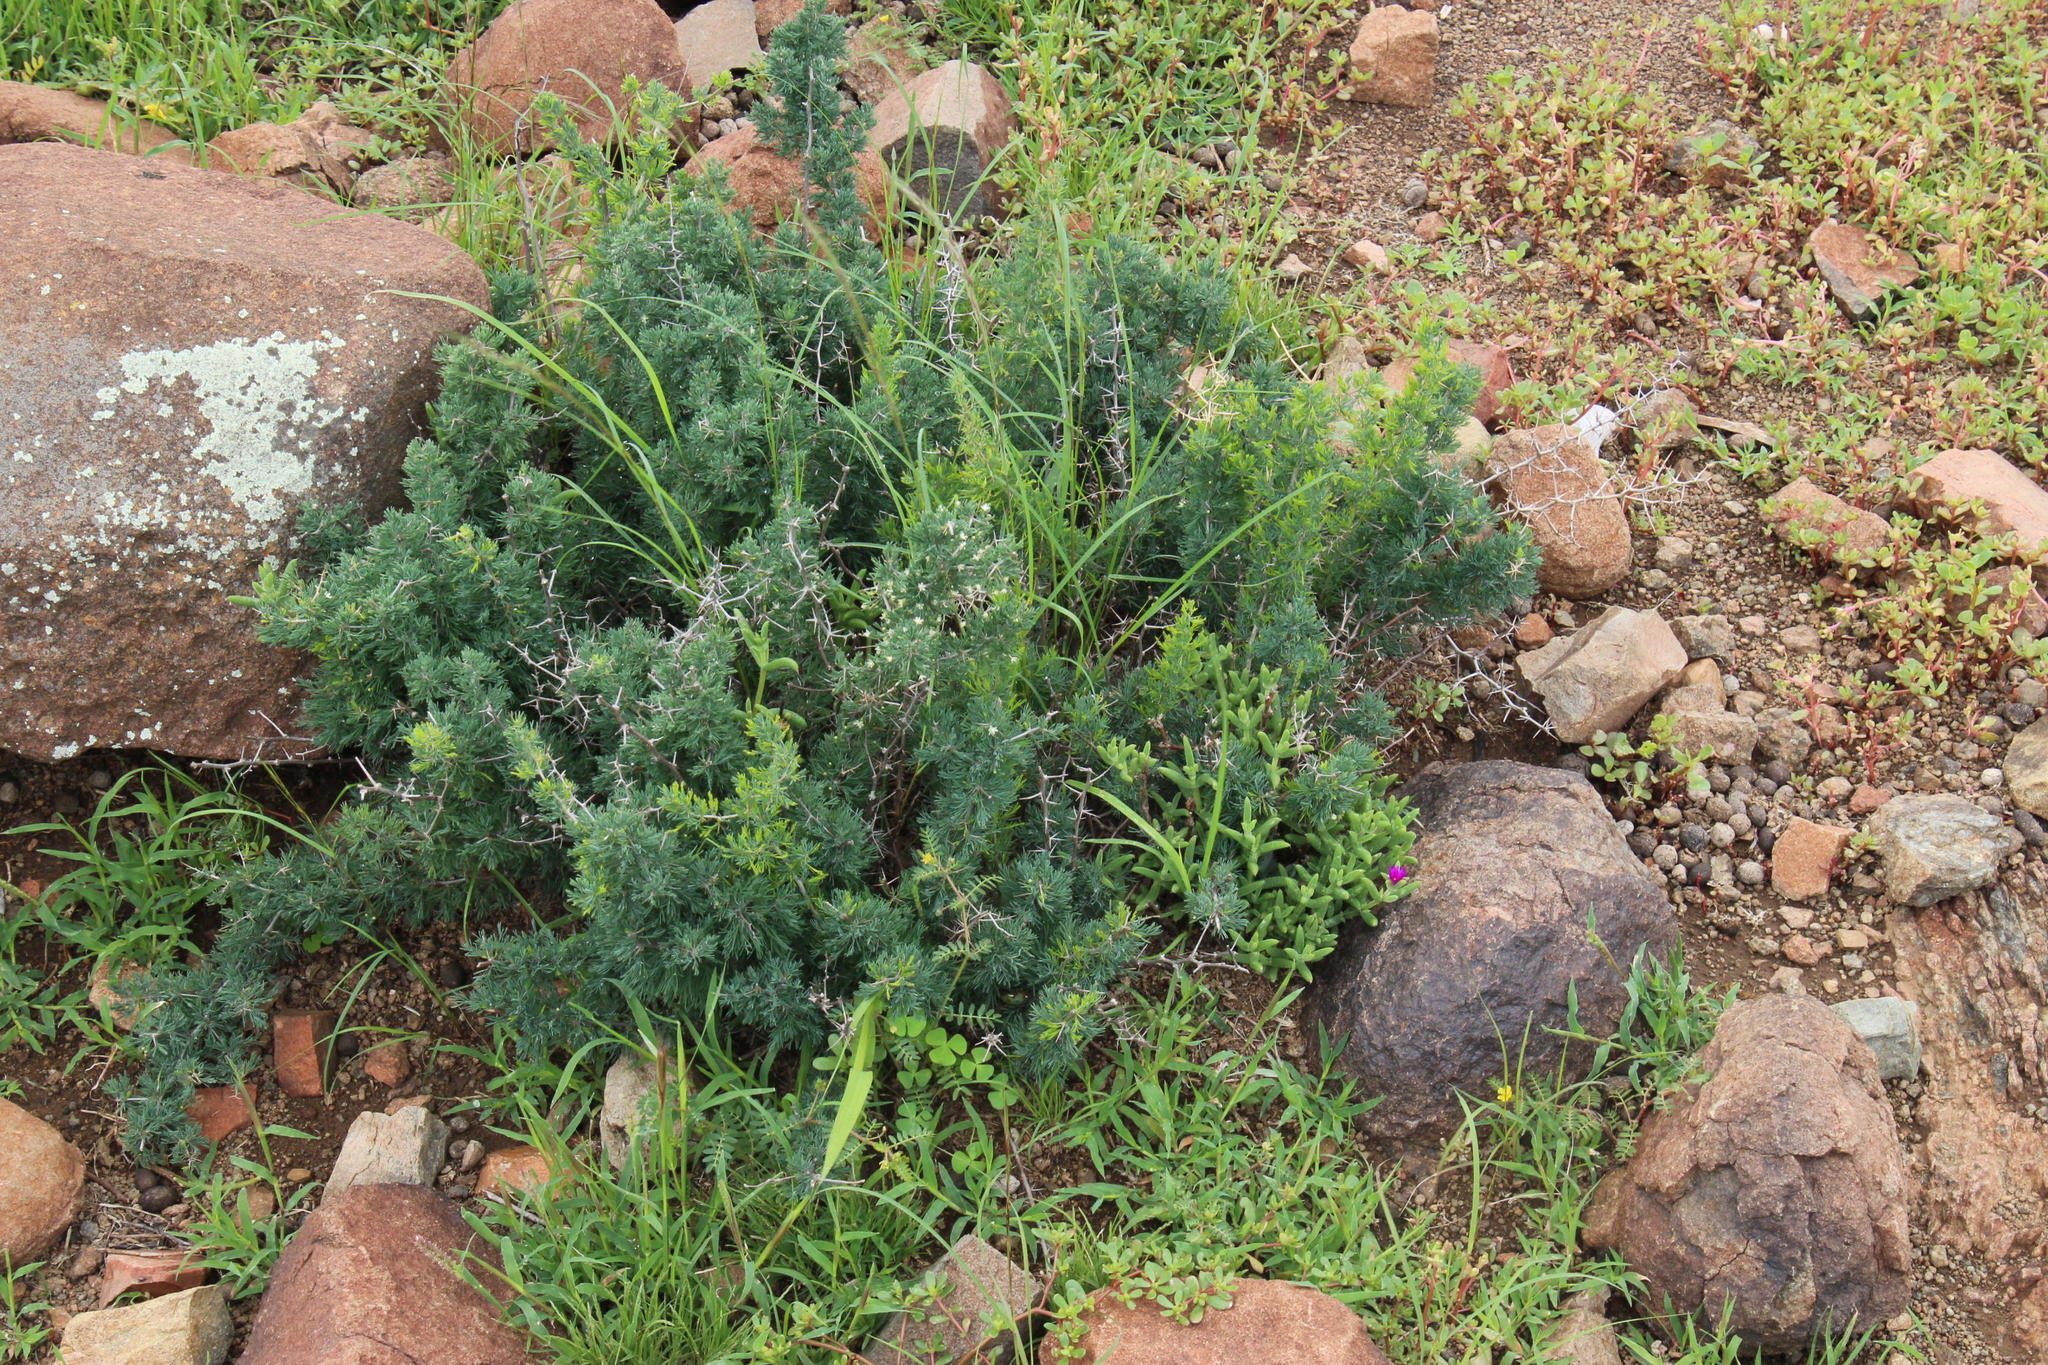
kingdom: Plantae
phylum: Tracheophyta
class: Liliopsida
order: Asparagales
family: Asparagaceae
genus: Asparagus
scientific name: Asparagus suaveolens
